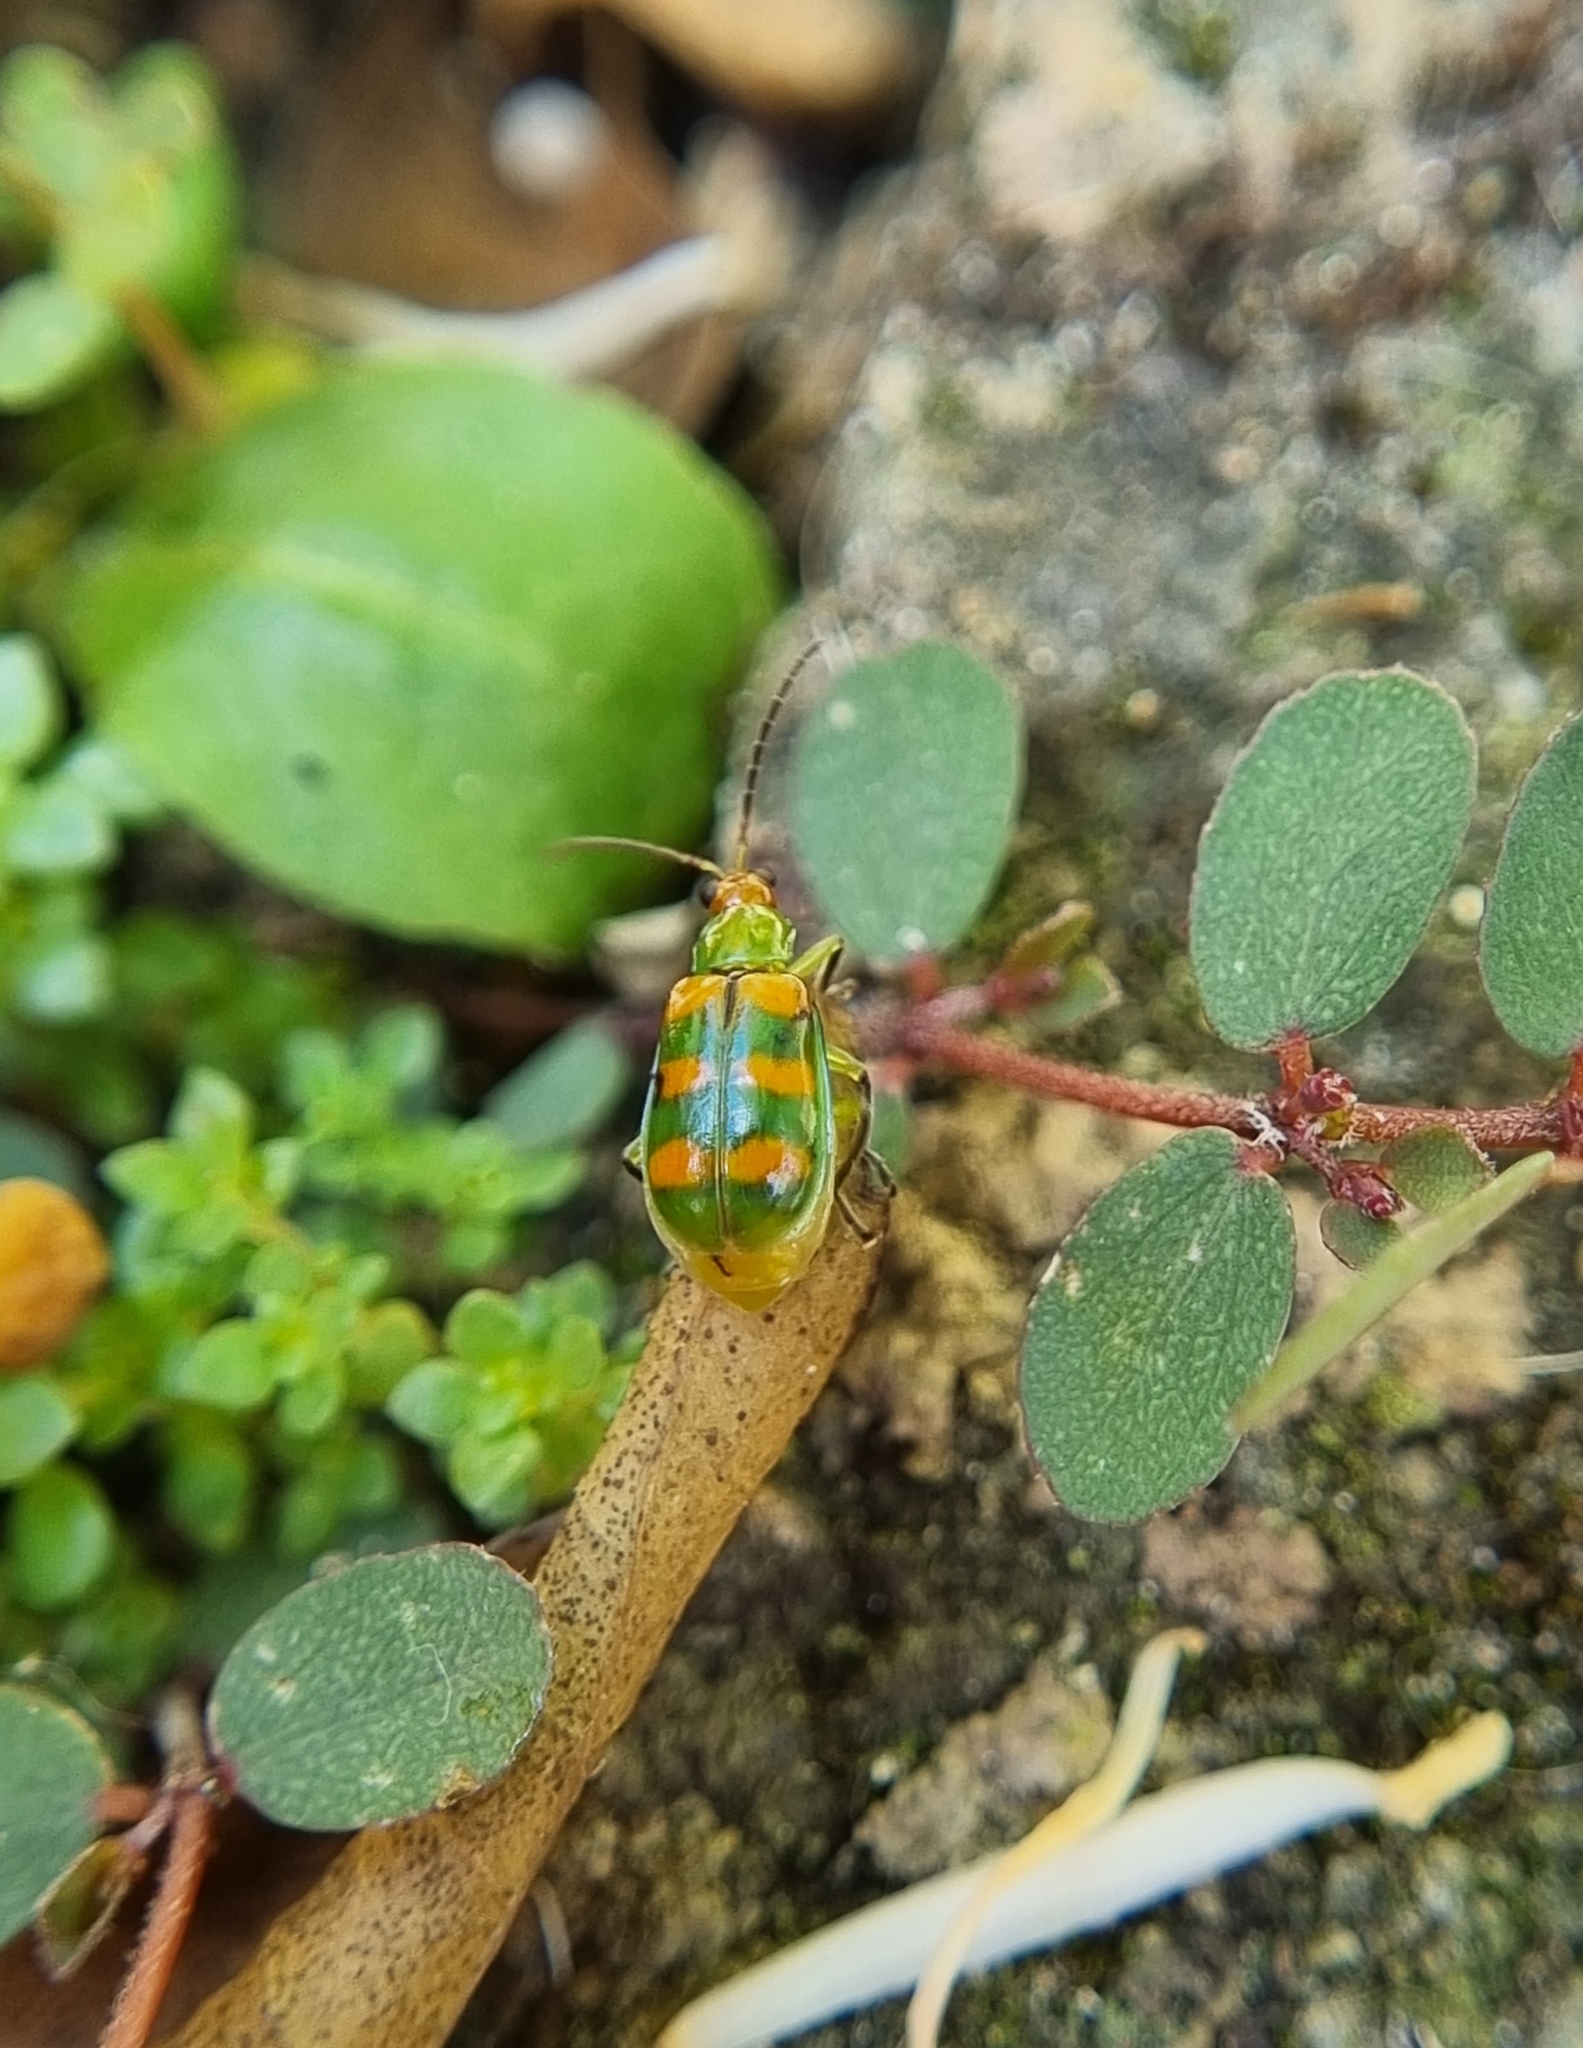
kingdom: Animalia
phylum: Arthropoda
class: Insecta
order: Coleoptera
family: Chrysomelidae
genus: Diabrotica
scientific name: Diabrotica speciosa
